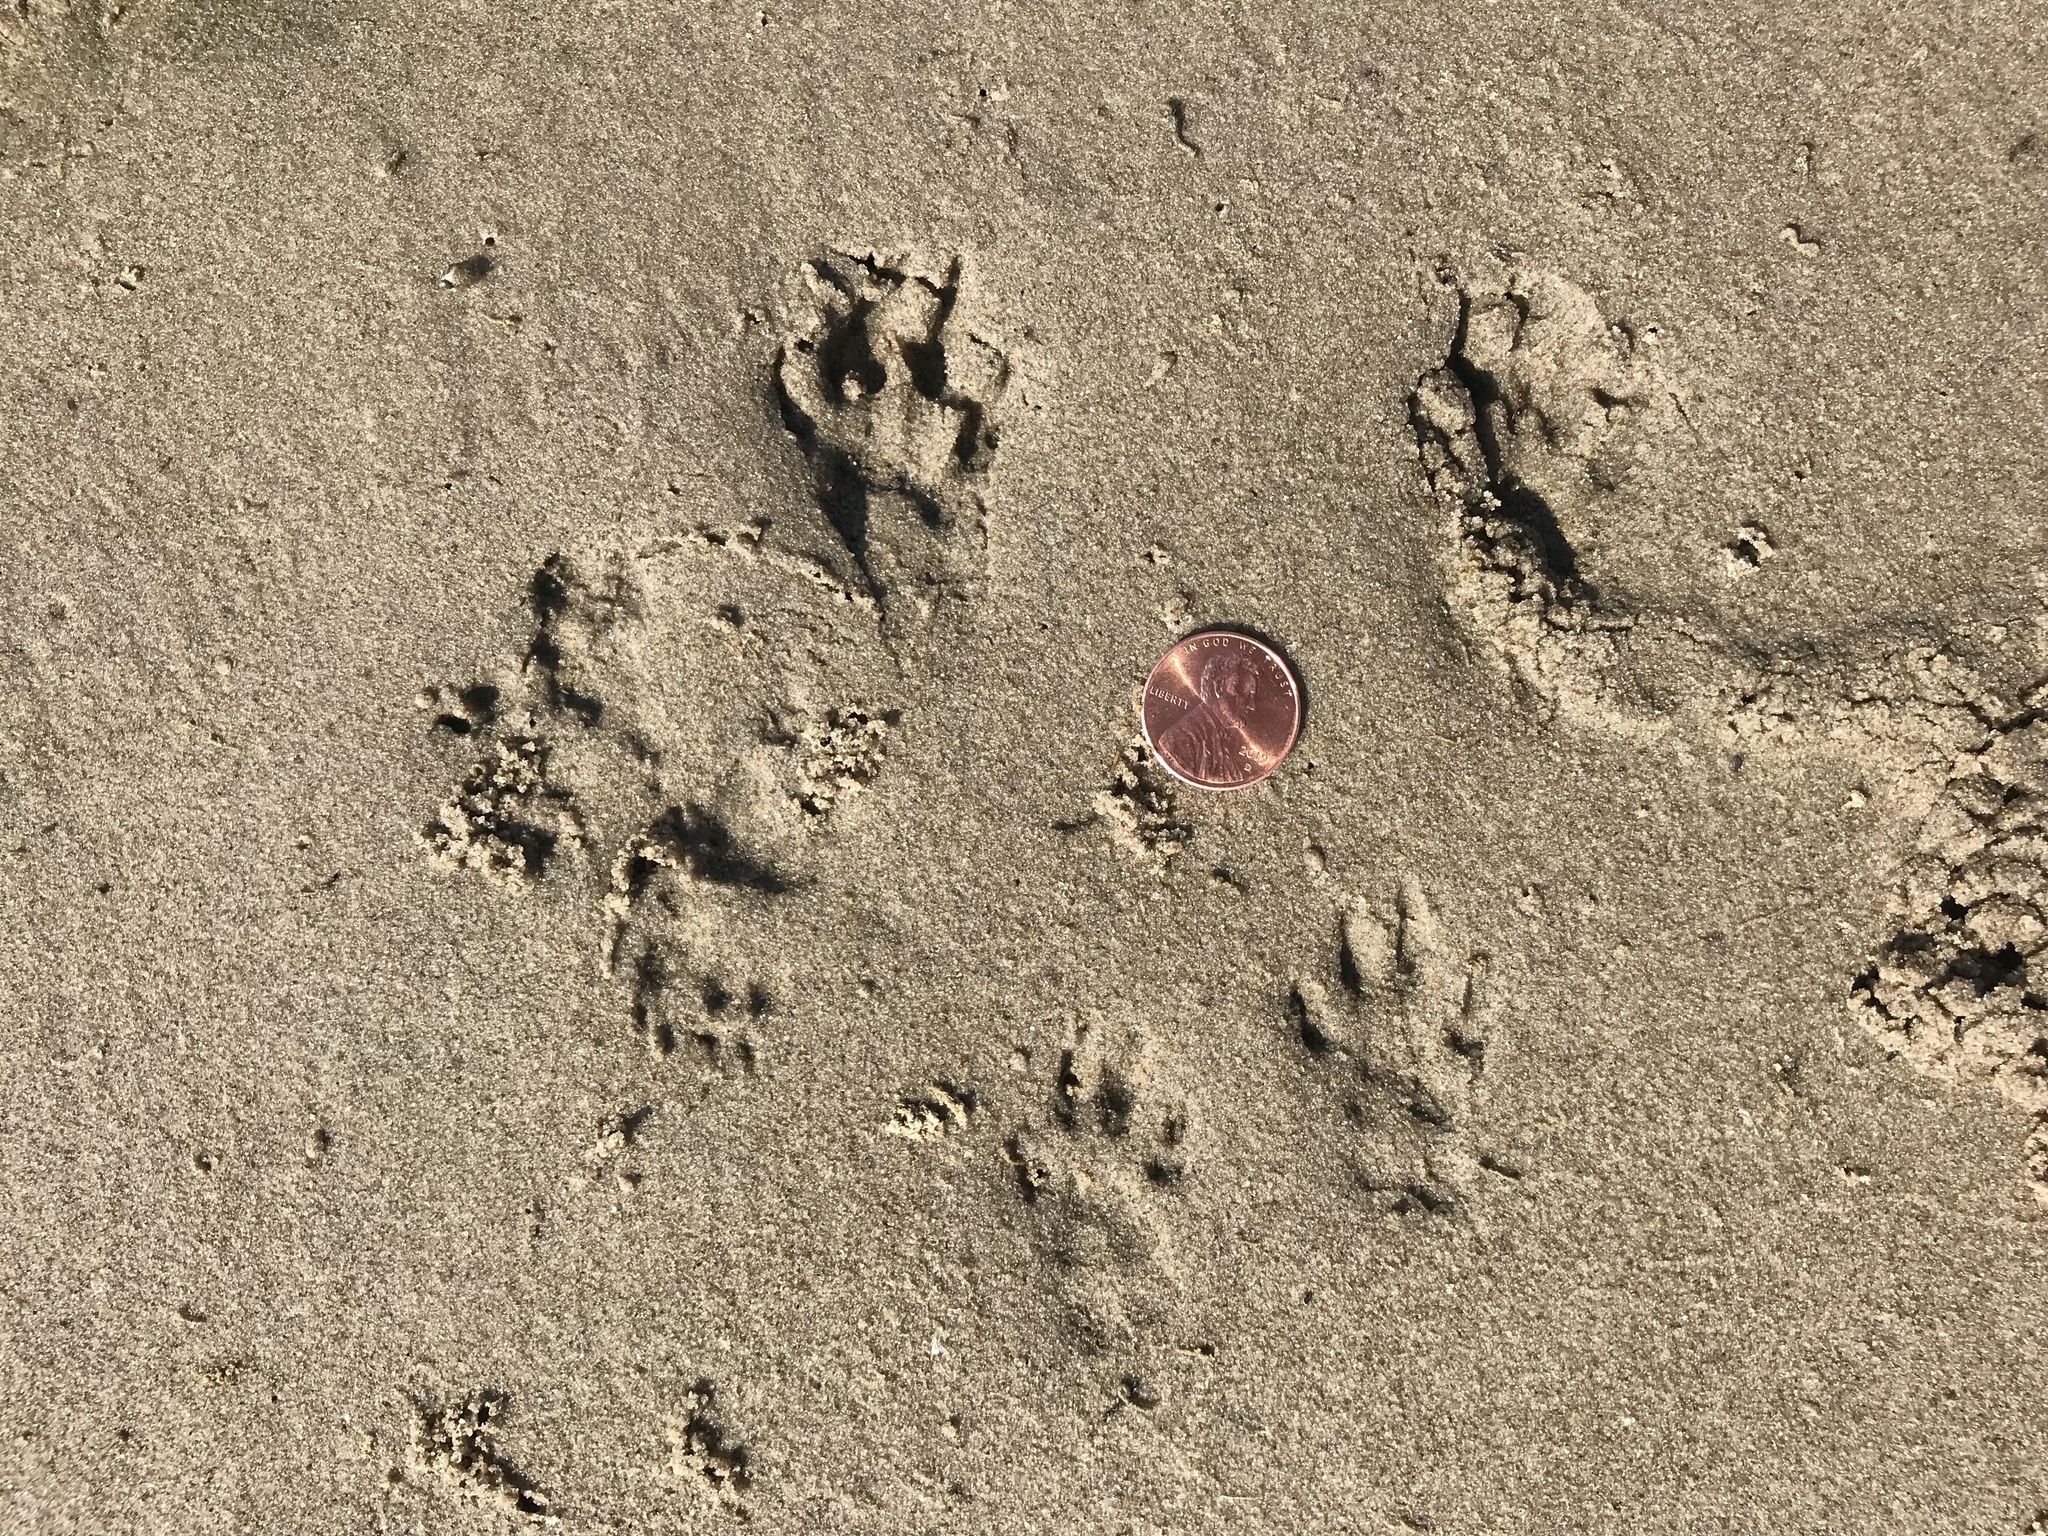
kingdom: Animalia
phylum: Chordata
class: Mammalia
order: Rodentia
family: Sciuridae
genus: Sciurus
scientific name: Sciurus niger
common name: Fox squirrel
